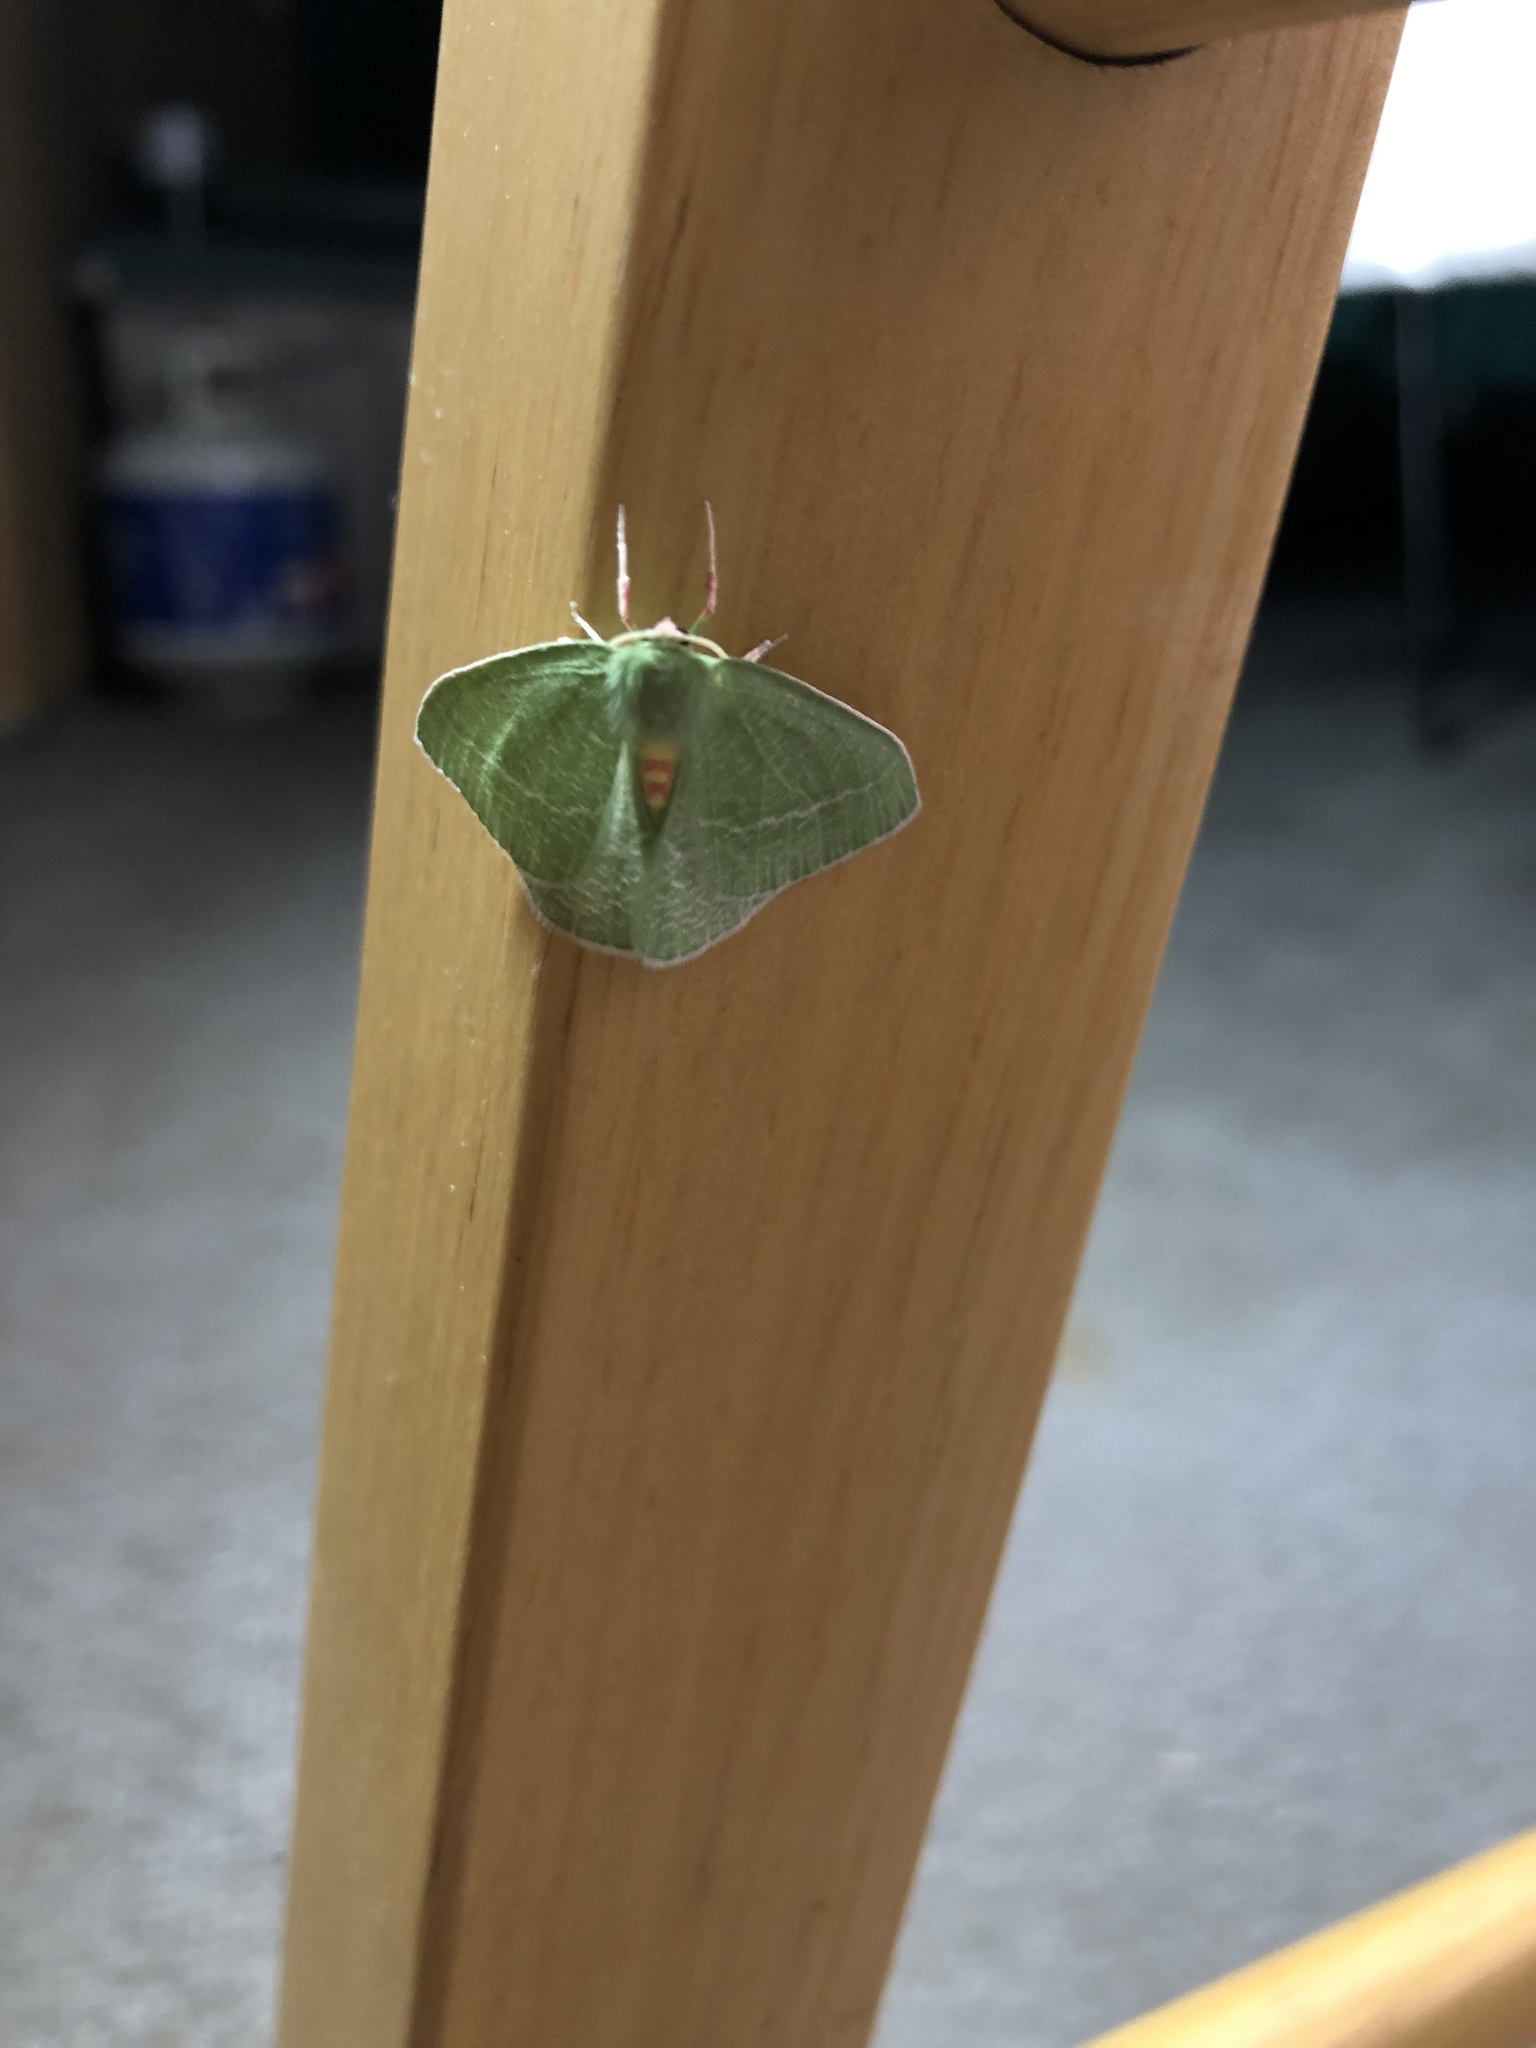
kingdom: Animalia
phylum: Arthropoda
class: Insecta
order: Lepidoptera
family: Geometridae
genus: Chlorosea
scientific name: Chlorosea banksaria
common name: Bank's emerald moth
